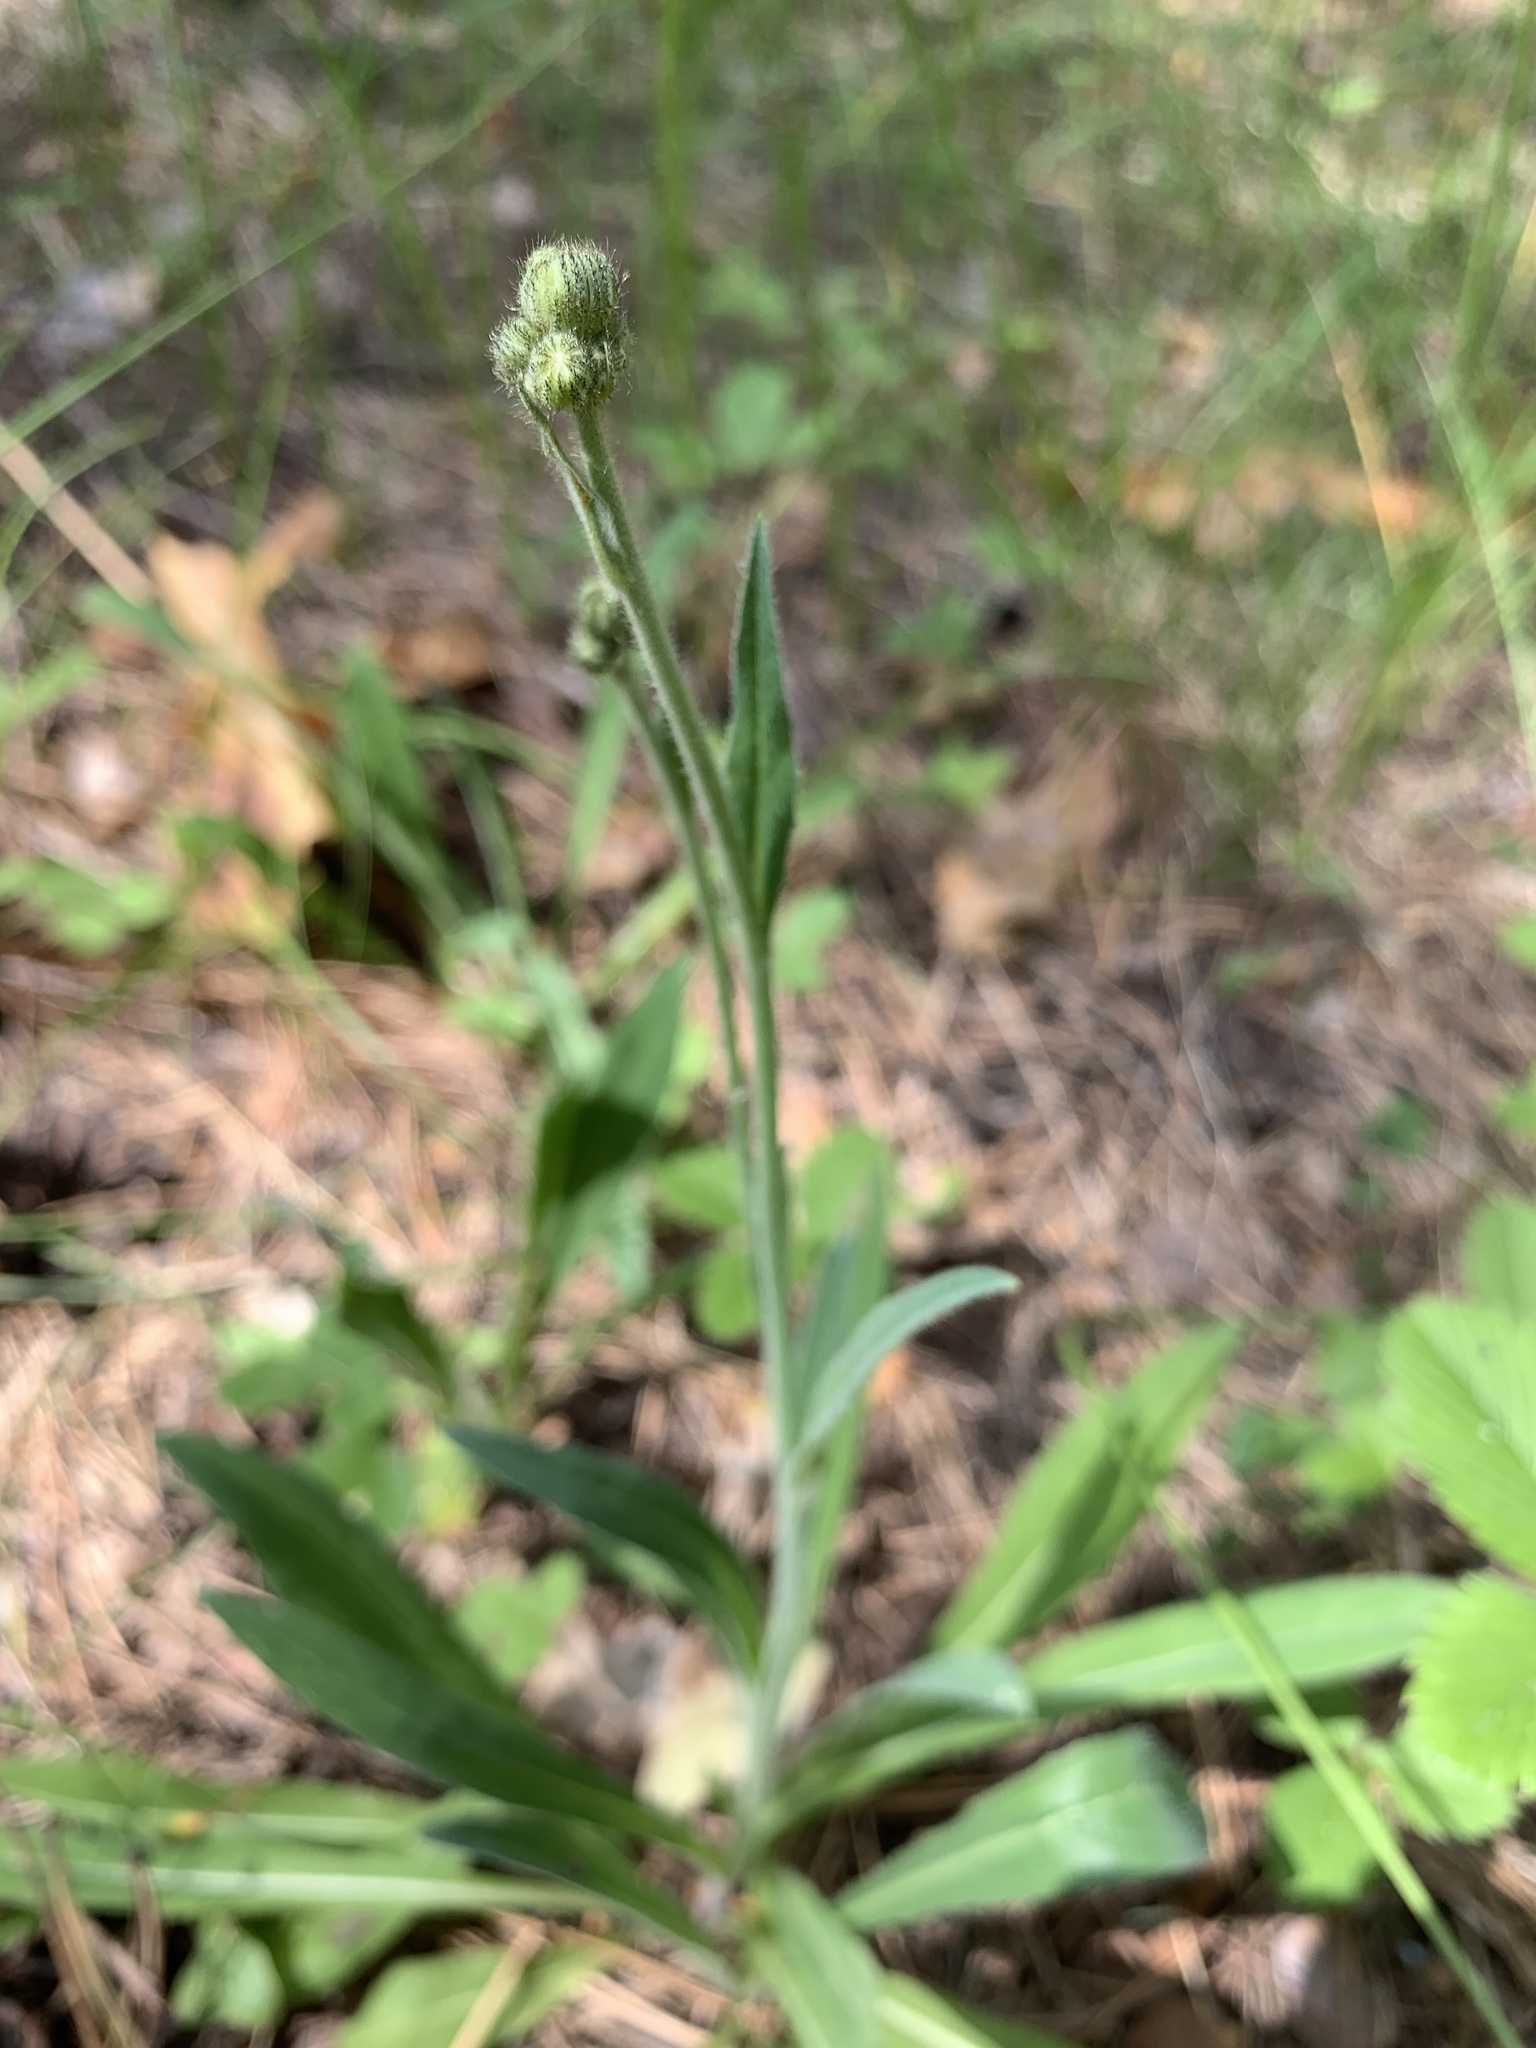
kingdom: Plantae
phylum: Tracheophyta
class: Magnoliopsida
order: Asterales
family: Asteraceae
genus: Pilosella
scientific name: Pilosella echioides
